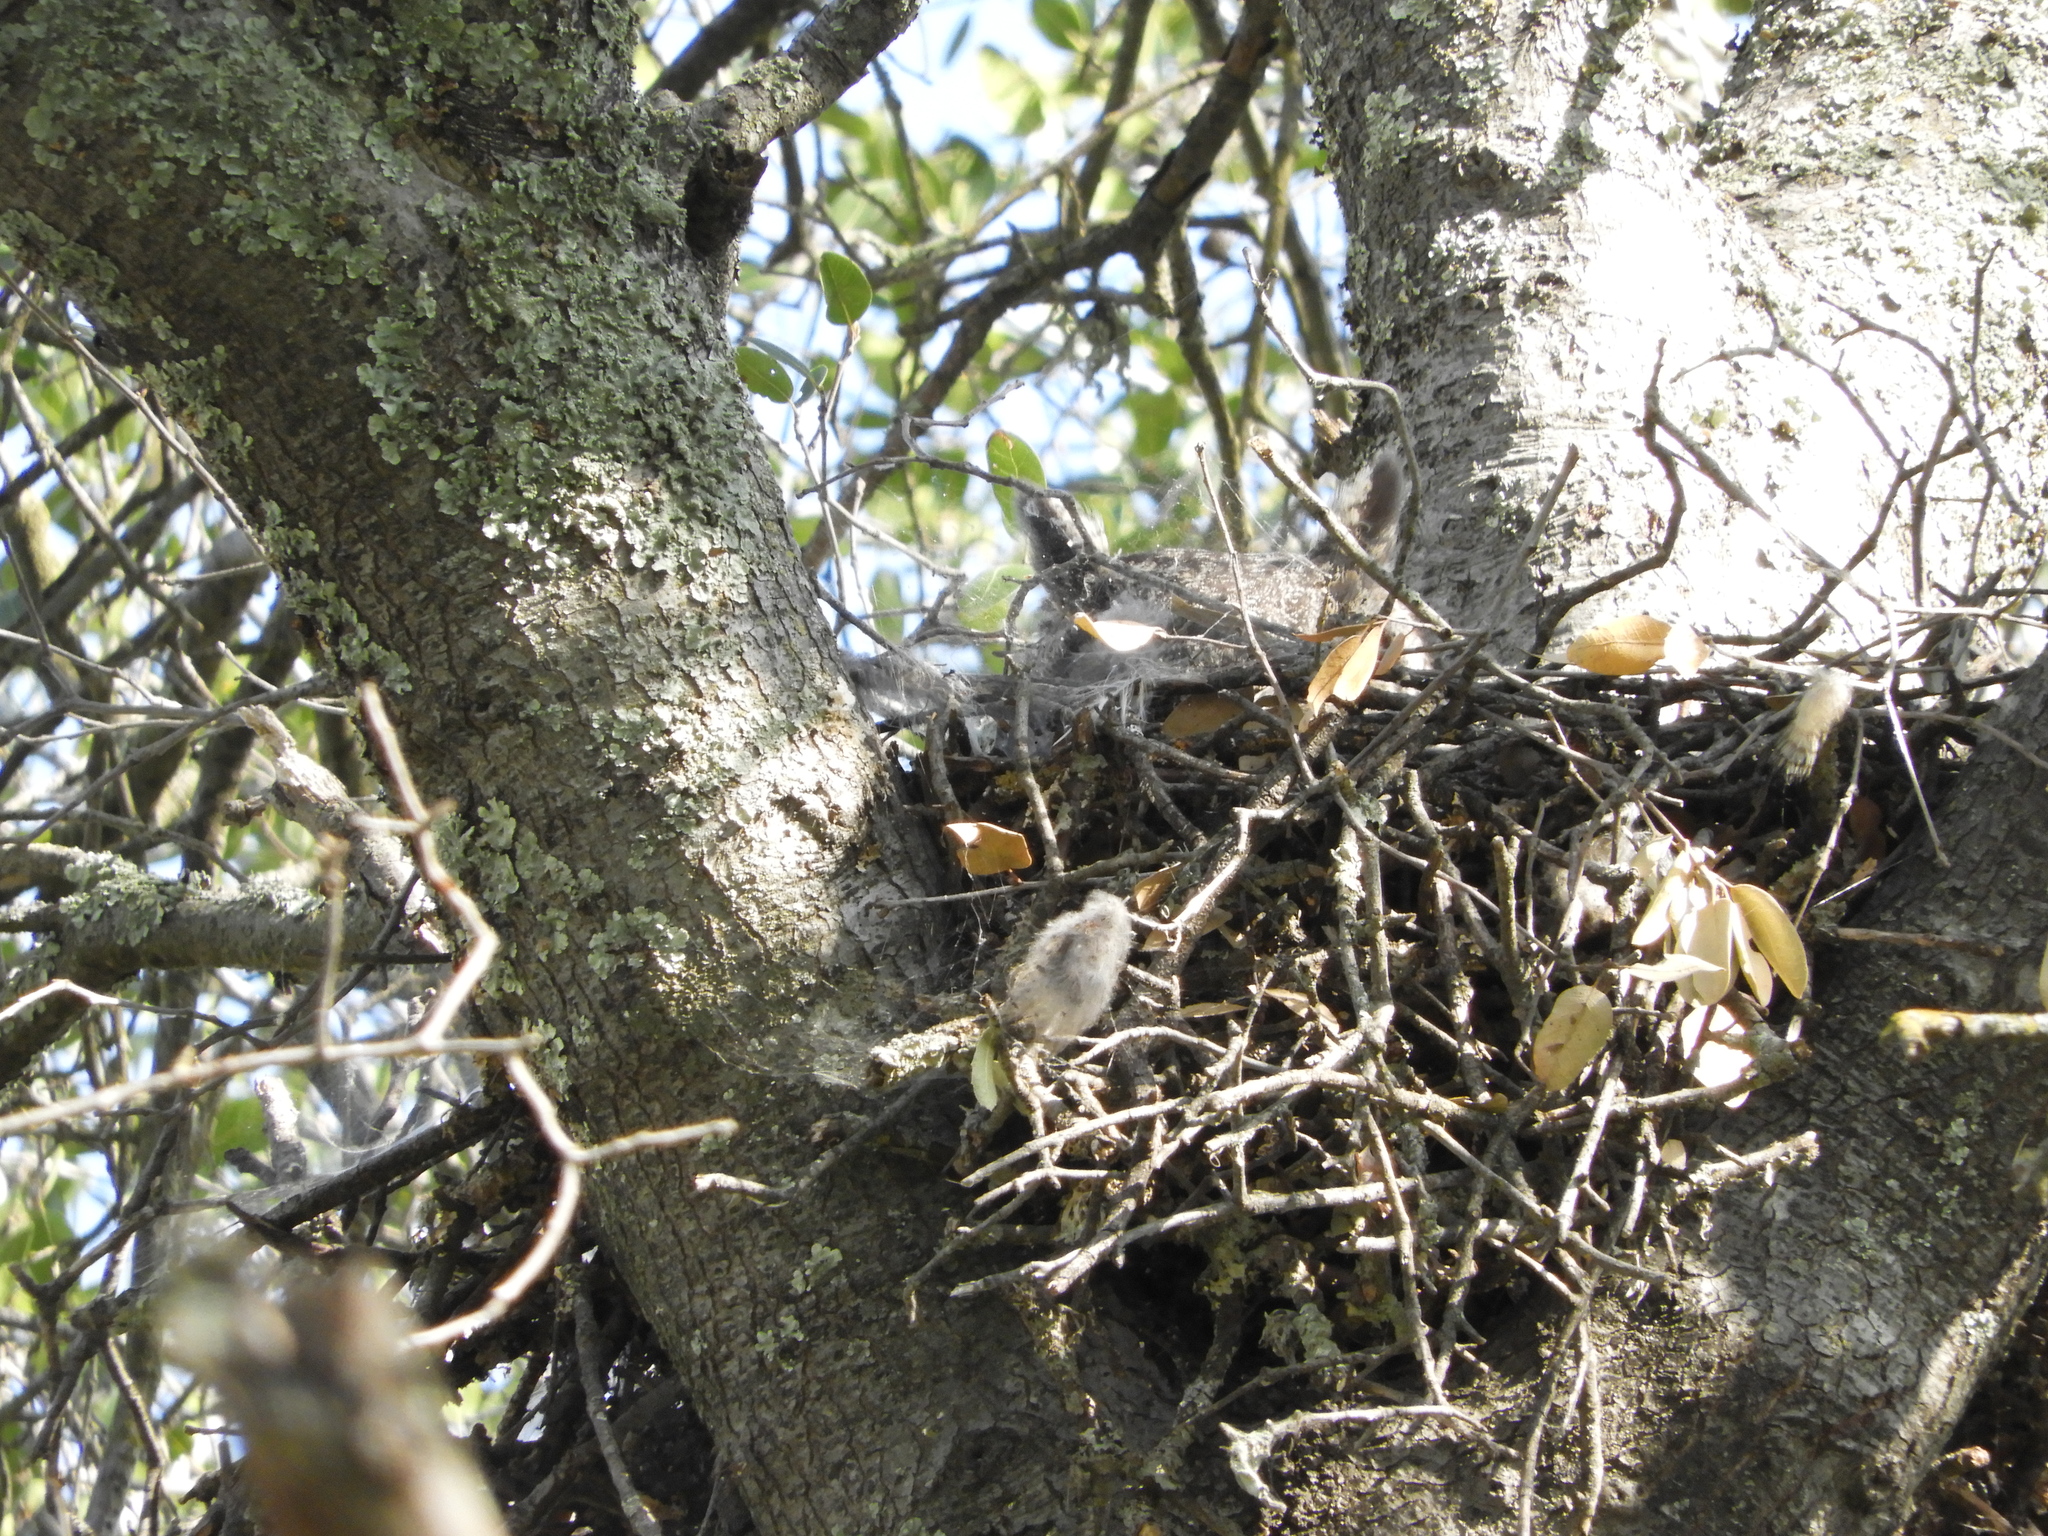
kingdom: Animalia
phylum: Chordata
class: Aves
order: Strigiformes
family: Strigidae
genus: Bubo
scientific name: Bubo virginianus
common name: Great horned owl
